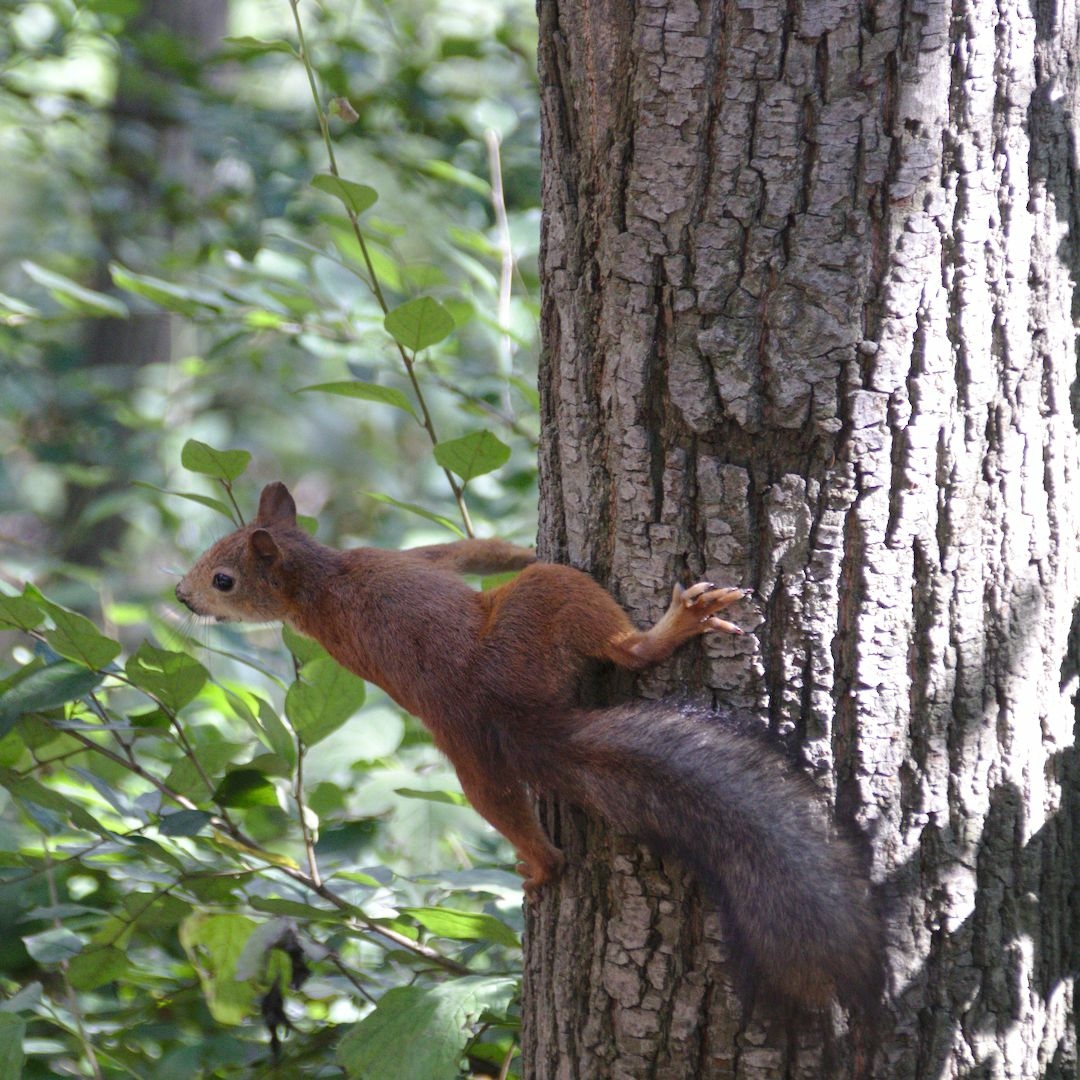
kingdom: Animalia
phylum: Chordata
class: Mammalia
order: Rodentia
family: Sciuridae
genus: Sciurus
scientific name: Sciurus vulgaris
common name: Eurasian red squirrel
